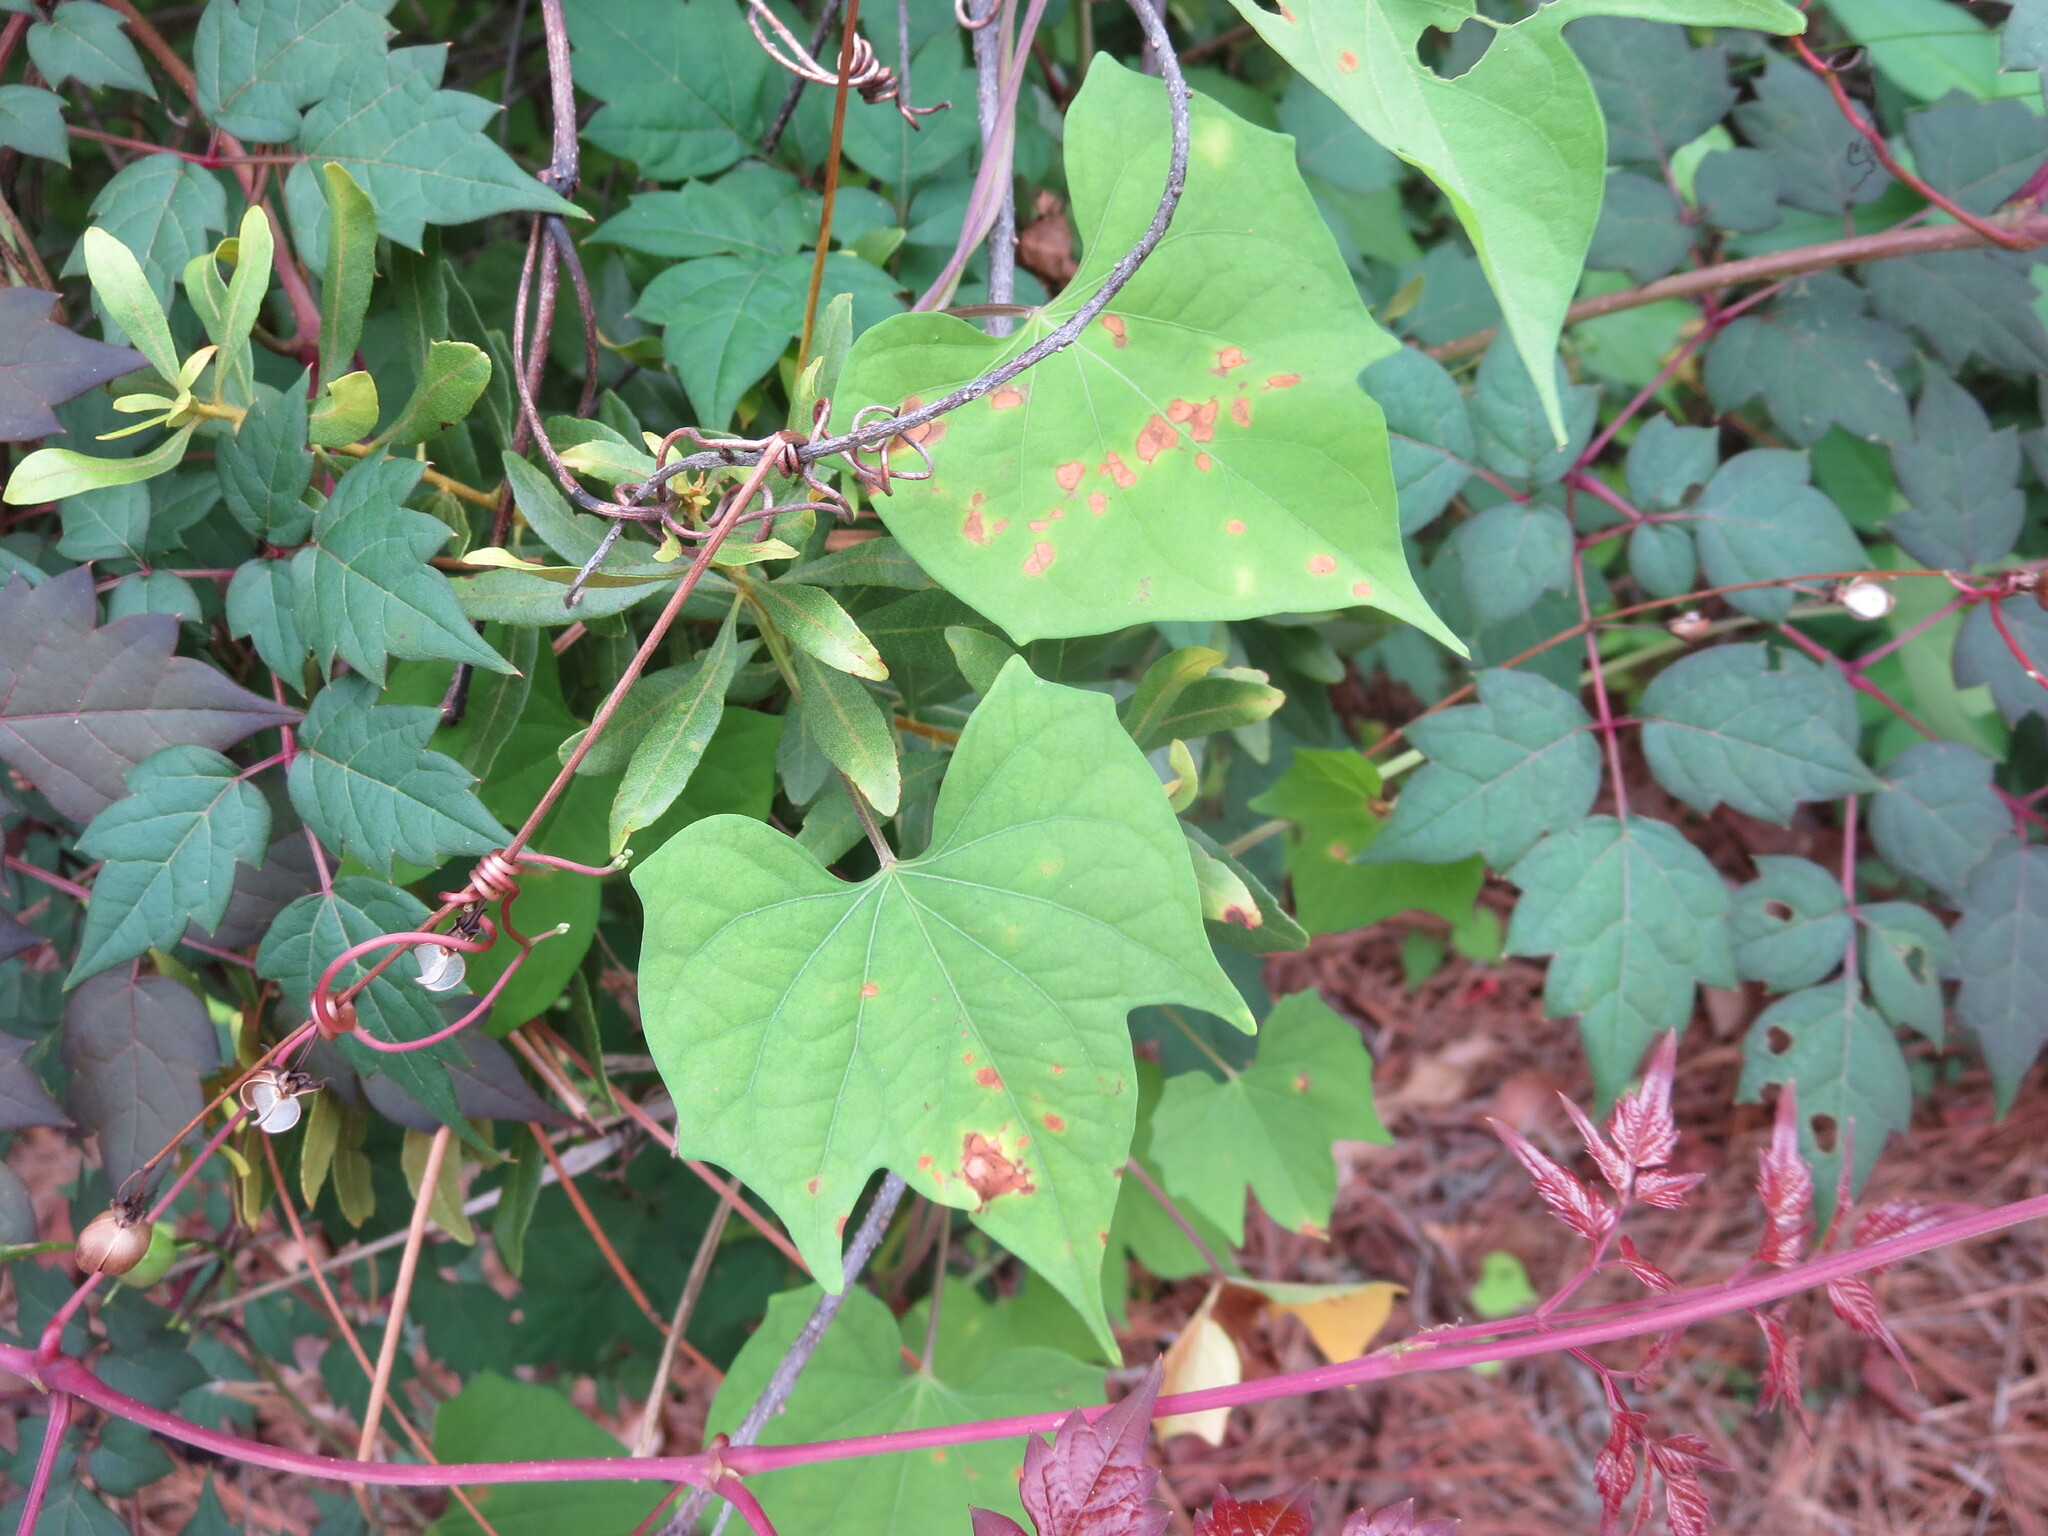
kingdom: Plantae
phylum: Tracheophyta
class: Magnoliopsida
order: Solanales
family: Convolvulaceae
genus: Ipomoea
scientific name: Ipomoea hederifolia
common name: Ivy-leaf morning-glory
